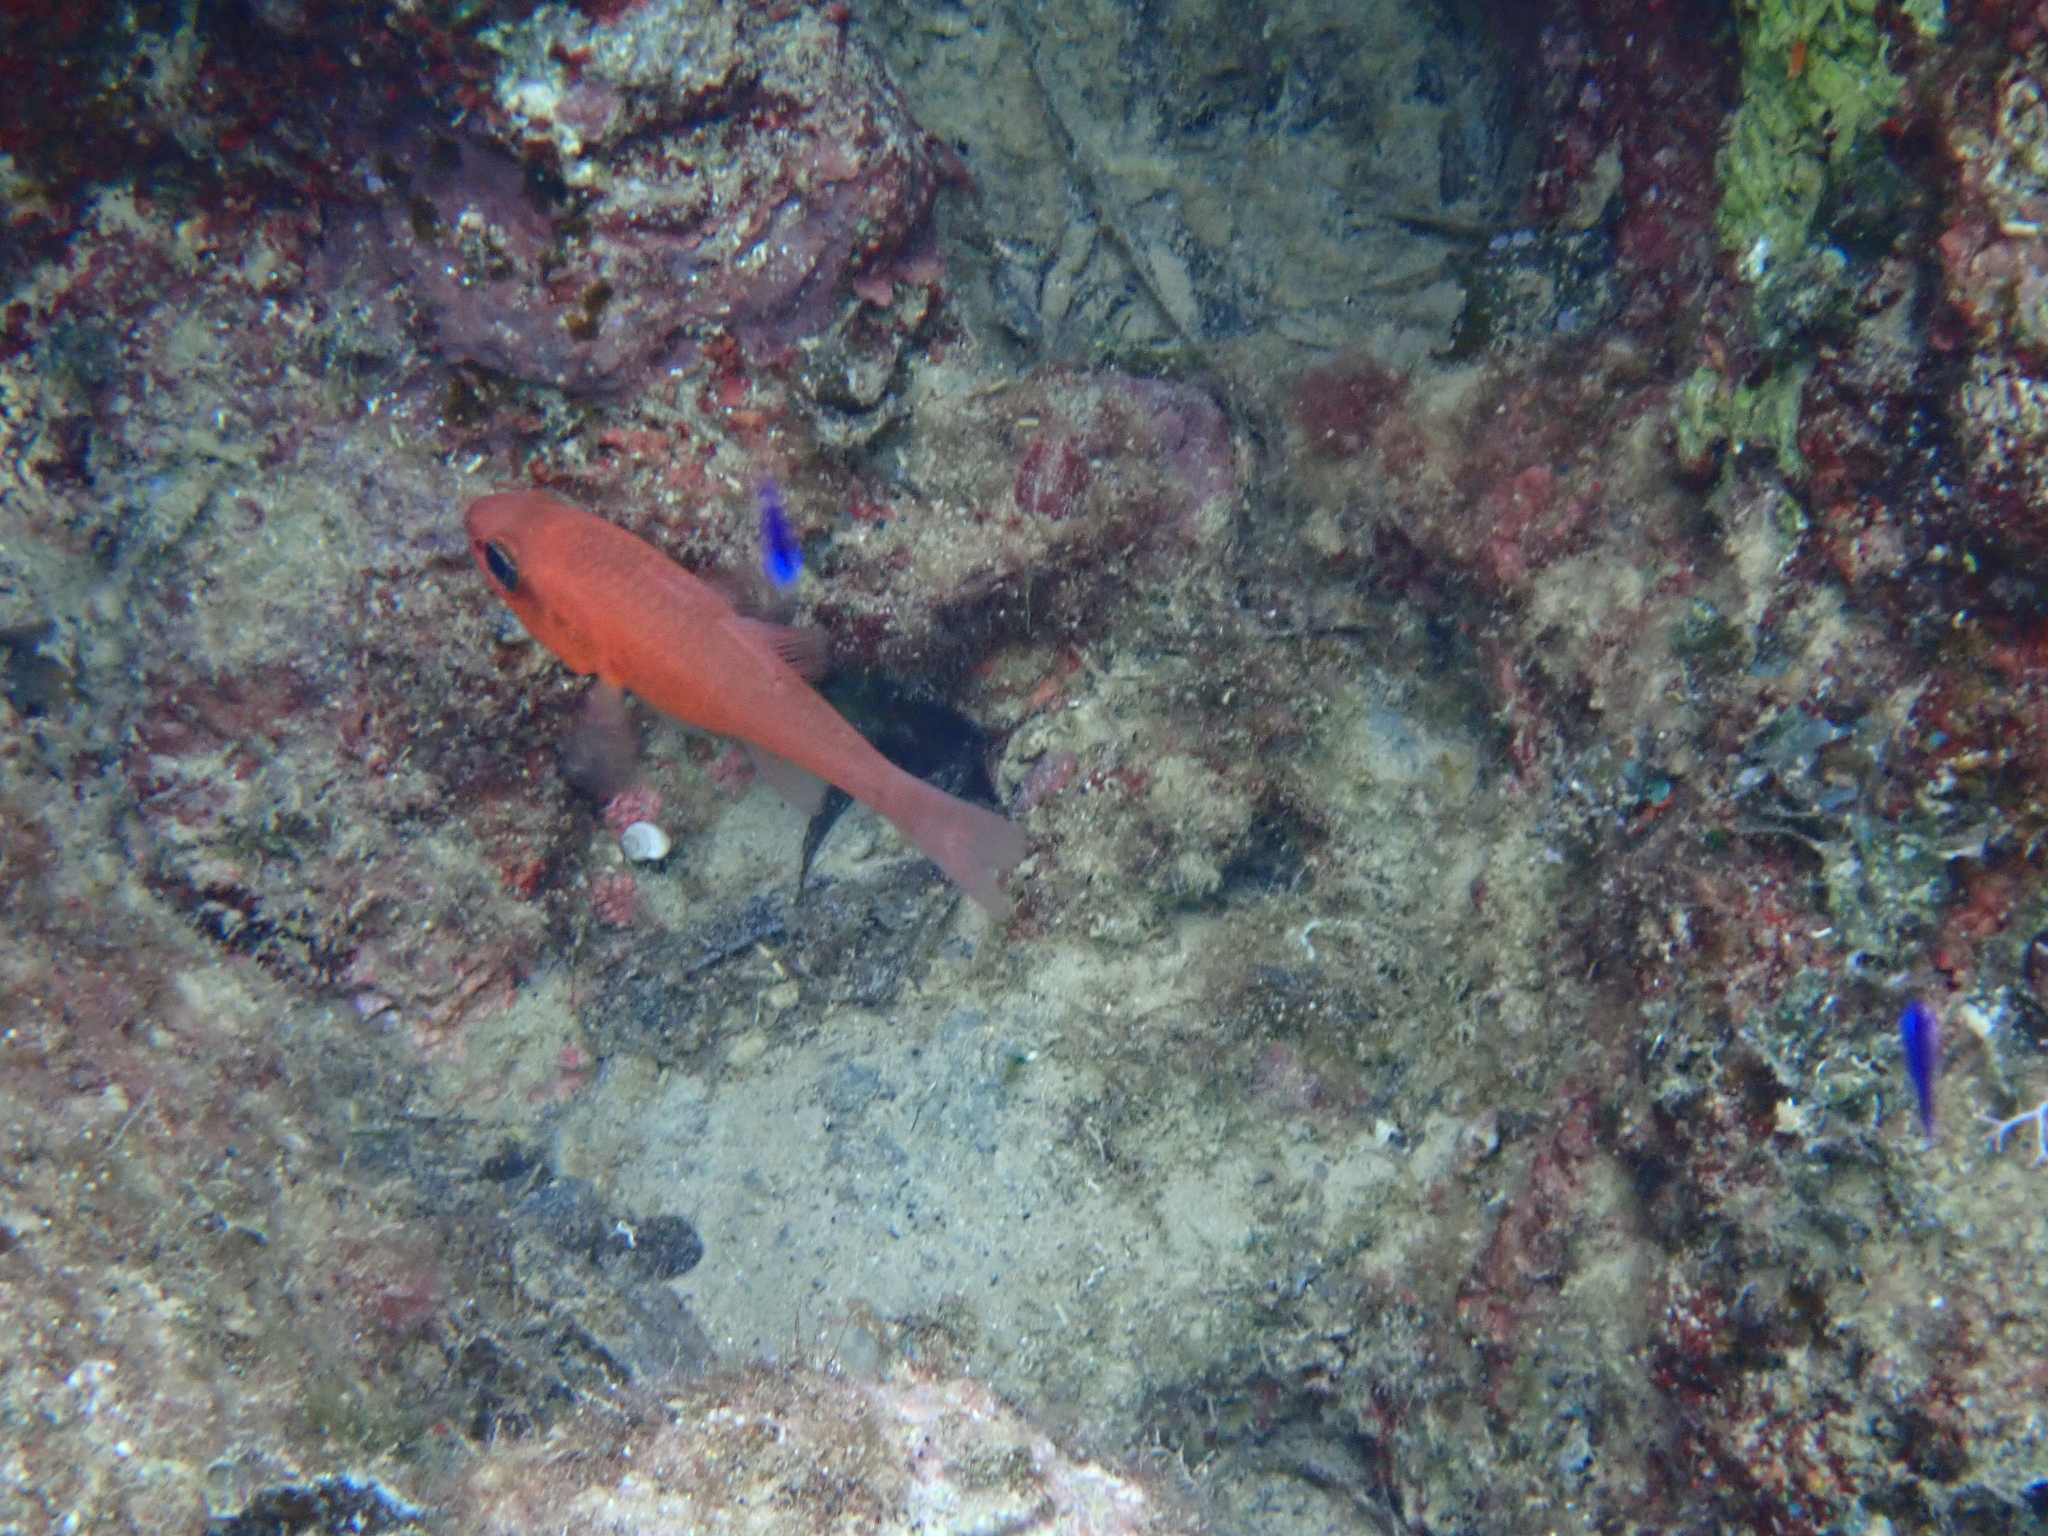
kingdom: Animalia
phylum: Chordata
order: Perciformes
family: Apogonidae
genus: Apogon
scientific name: Apogon imberbis
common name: Cardinal fish
